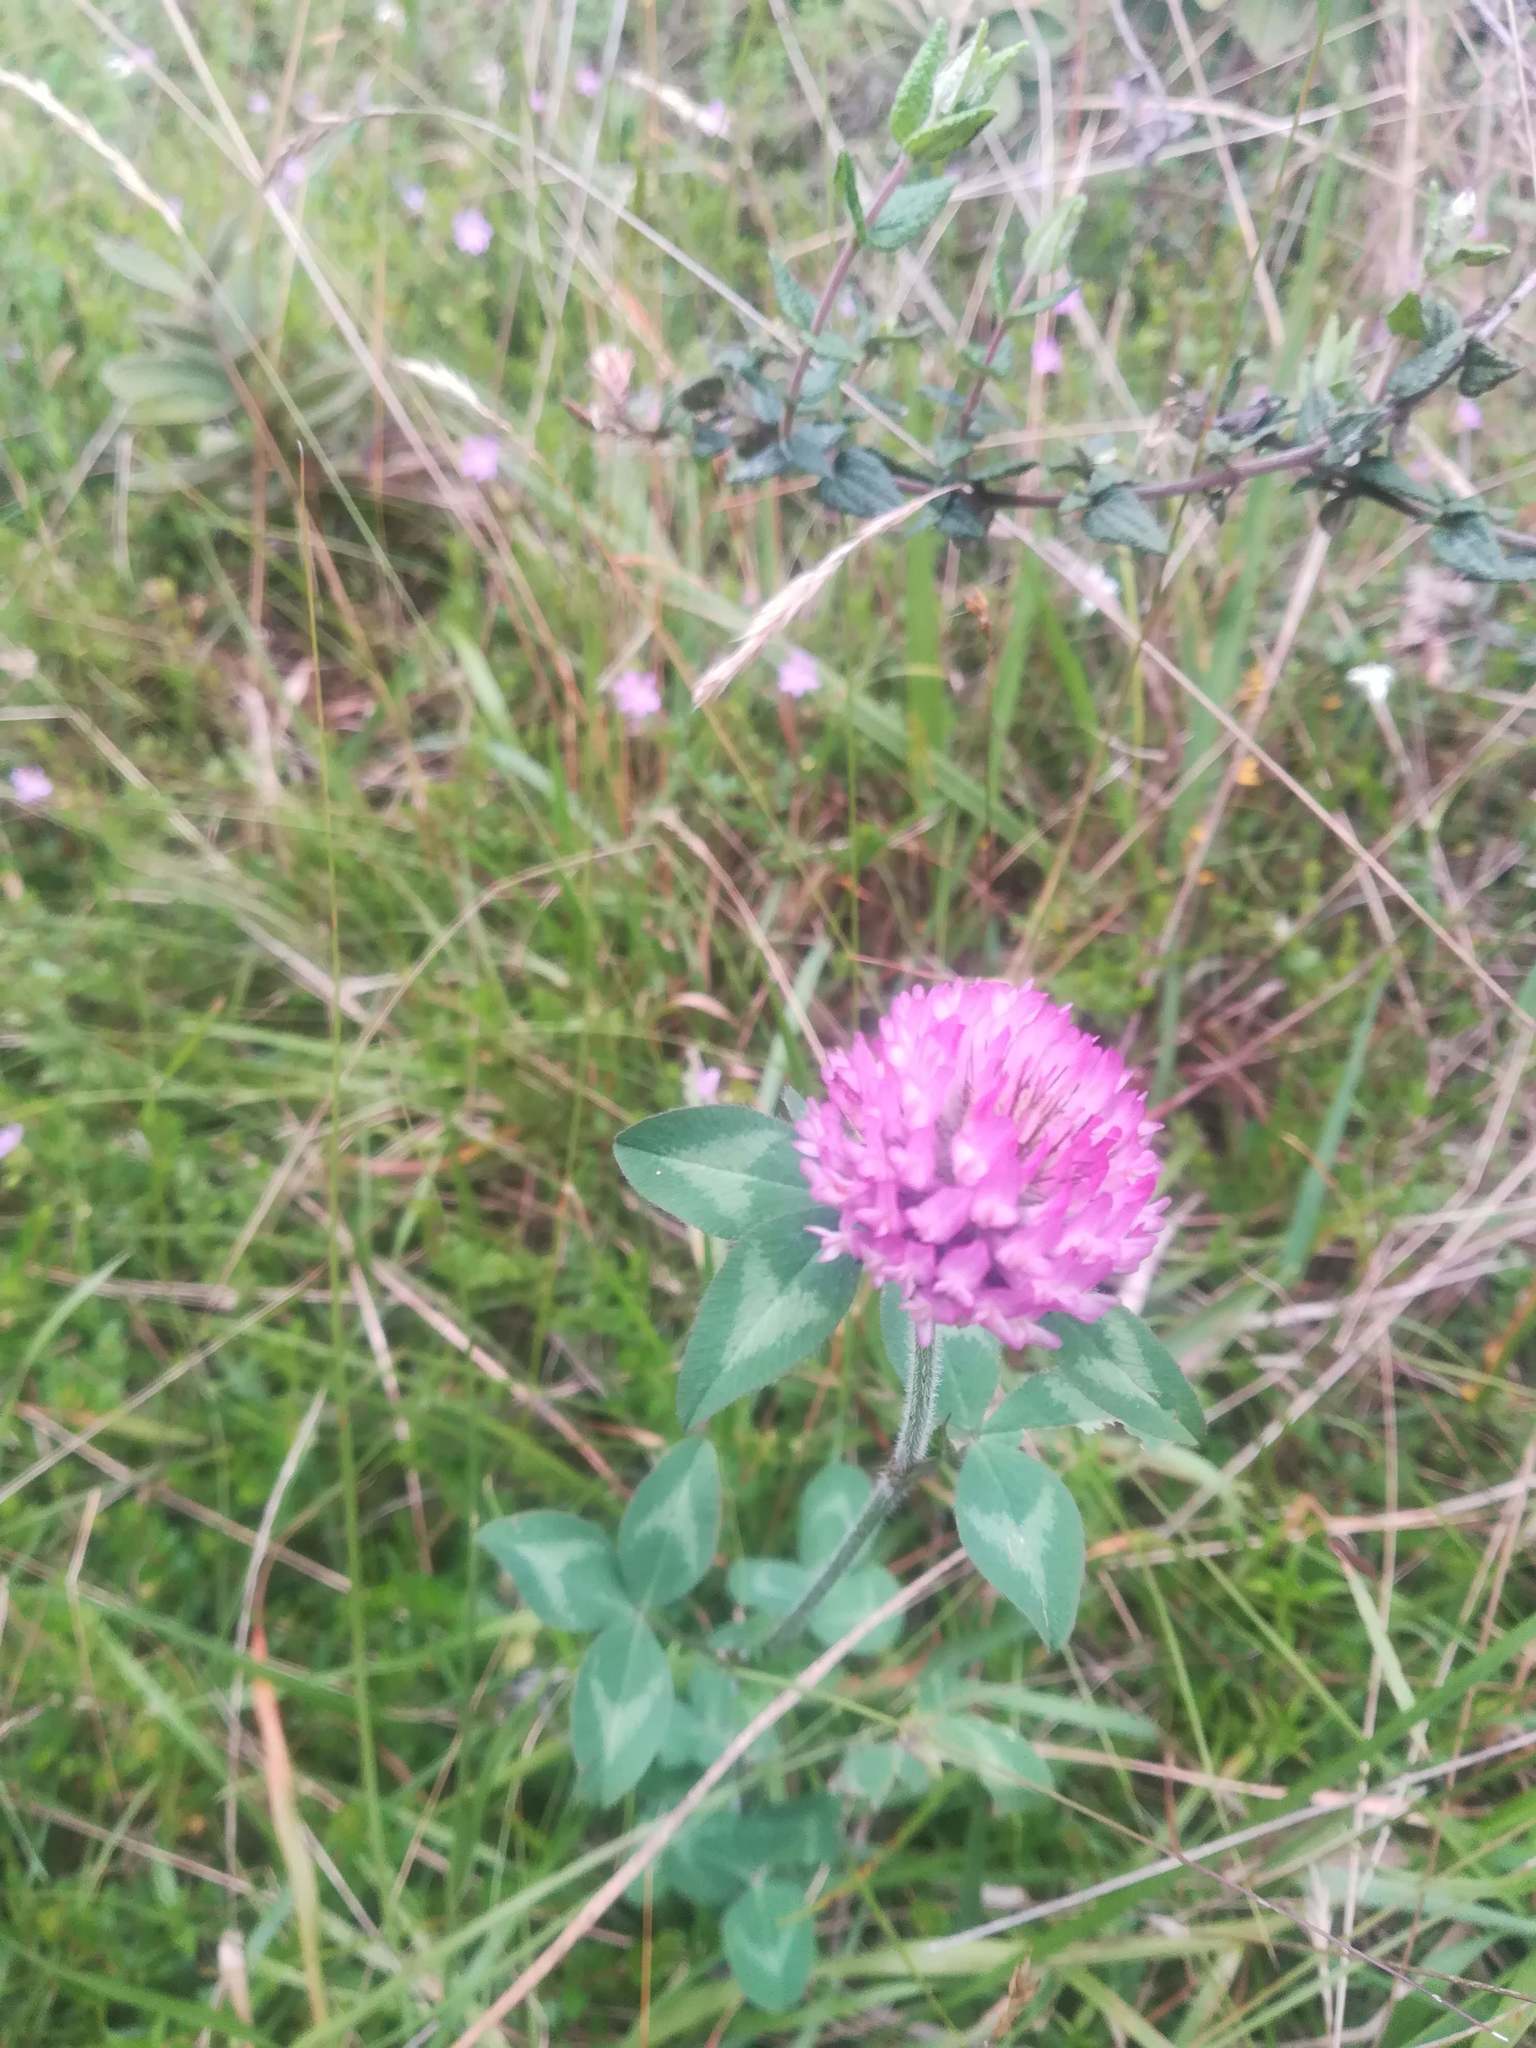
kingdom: Plantae
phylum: Tracheophyta
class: Magnoliopsida
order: Fabales
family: Fabaceae
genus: Trifolium
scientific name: Trifolium pratense
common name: Red clover
